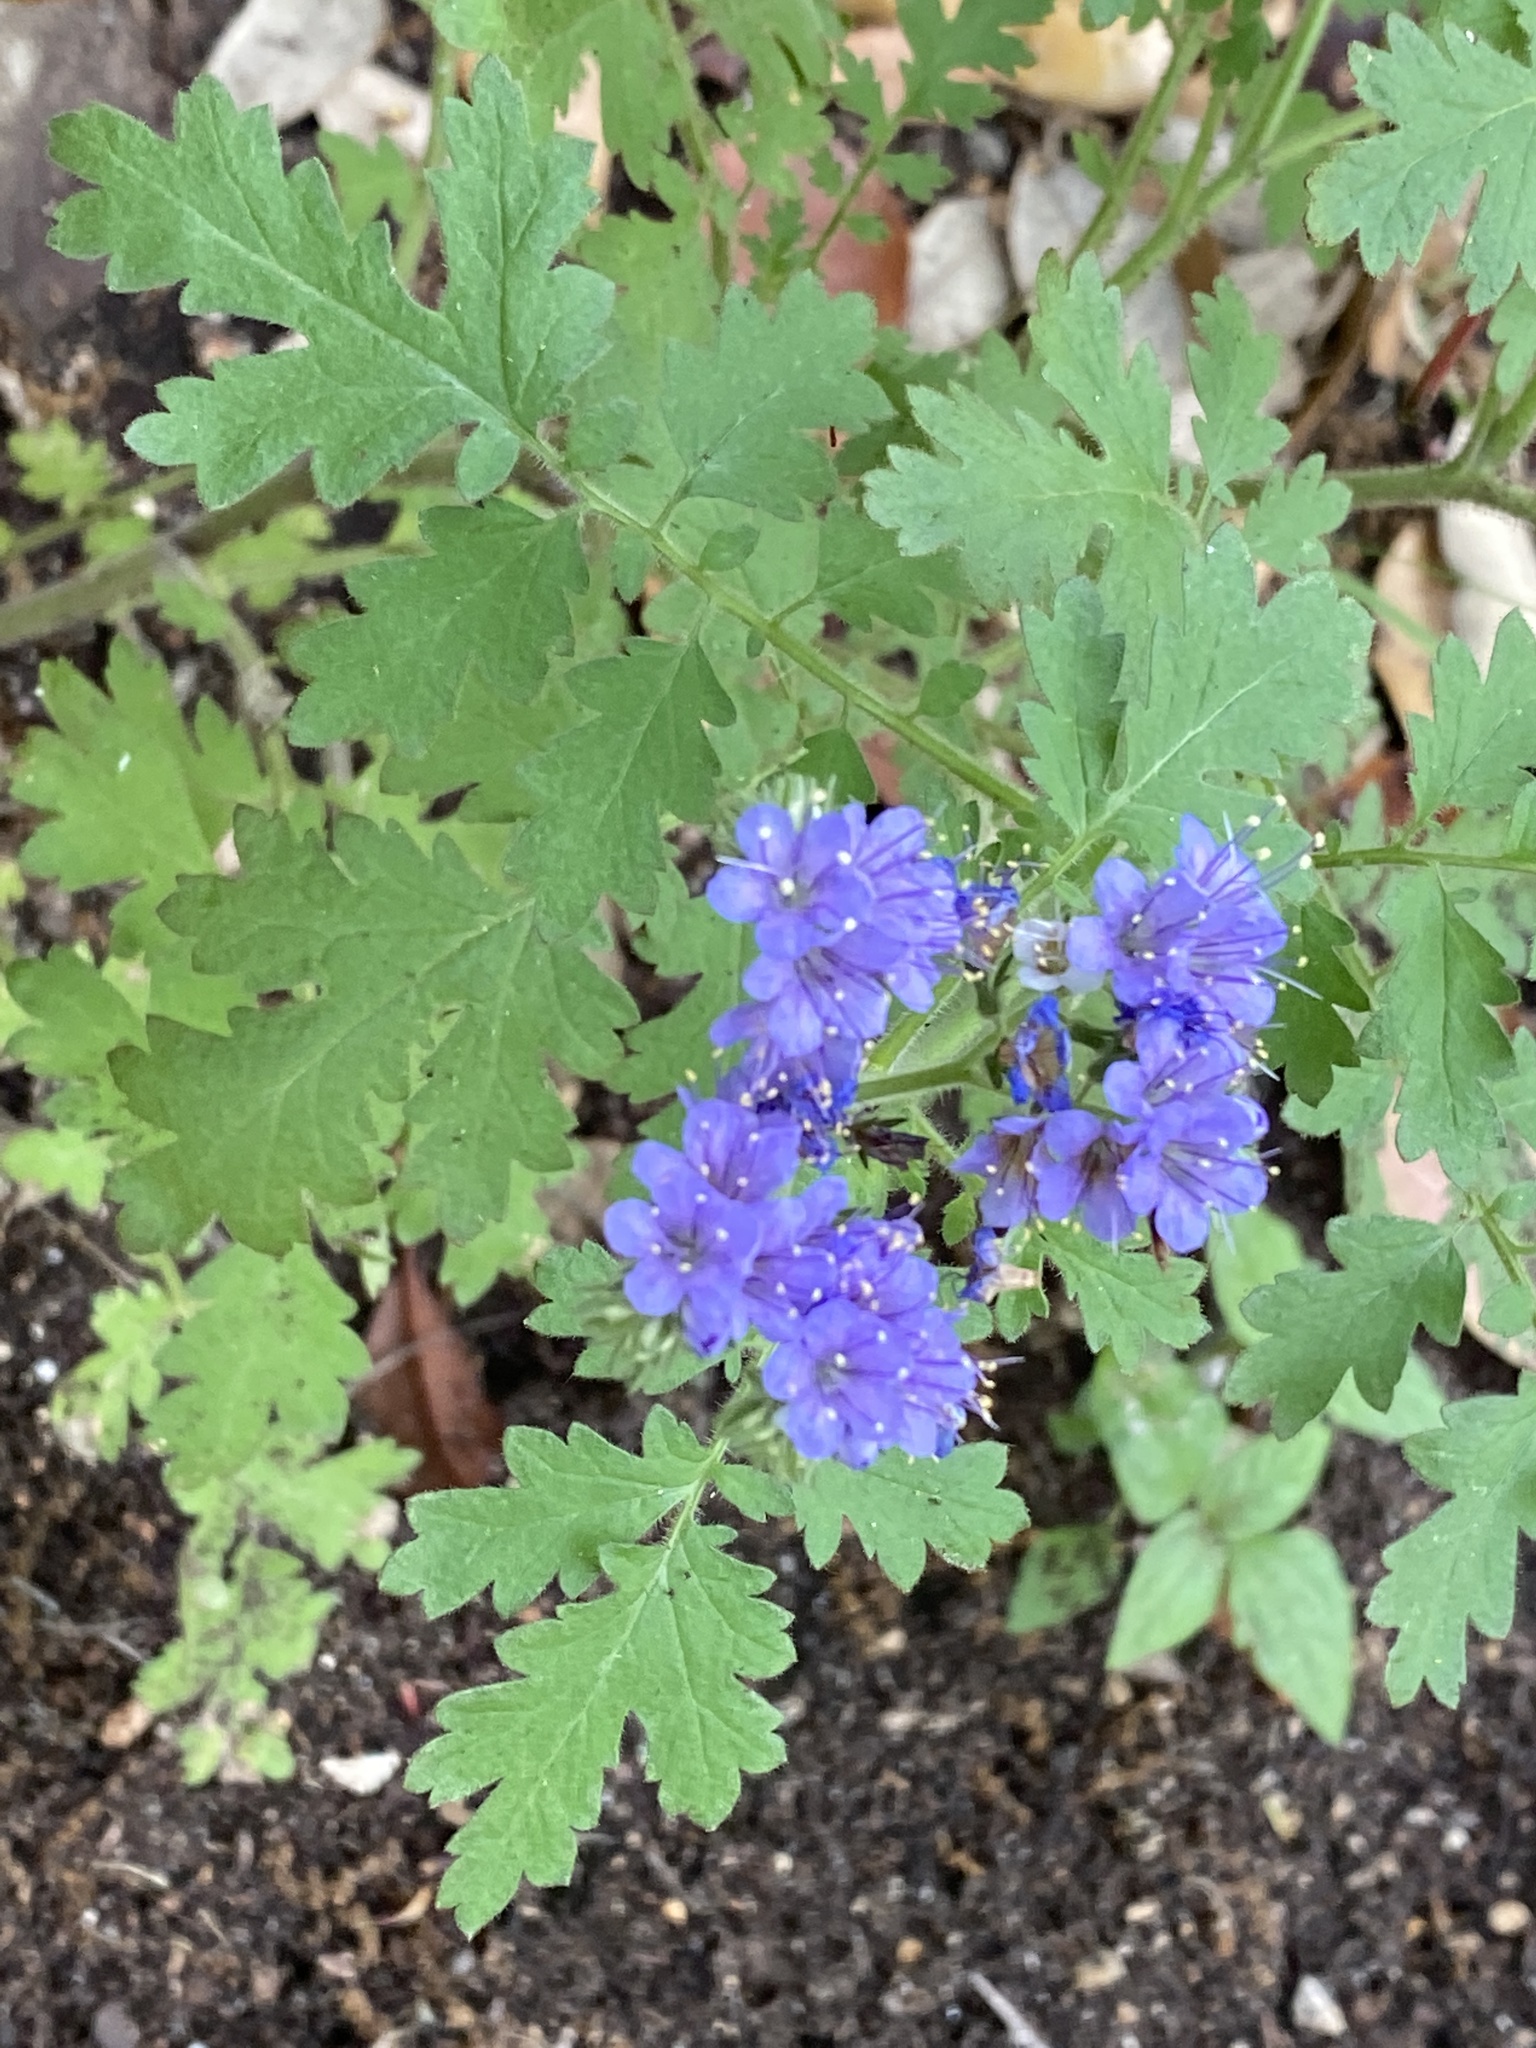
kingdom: Plantae
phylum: Tracheophyta
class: Magnoliopsida
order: Boraginales
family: Hydrophyllaceae
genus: Phacelia
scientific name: Phacelia congesta
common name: Blue curls
